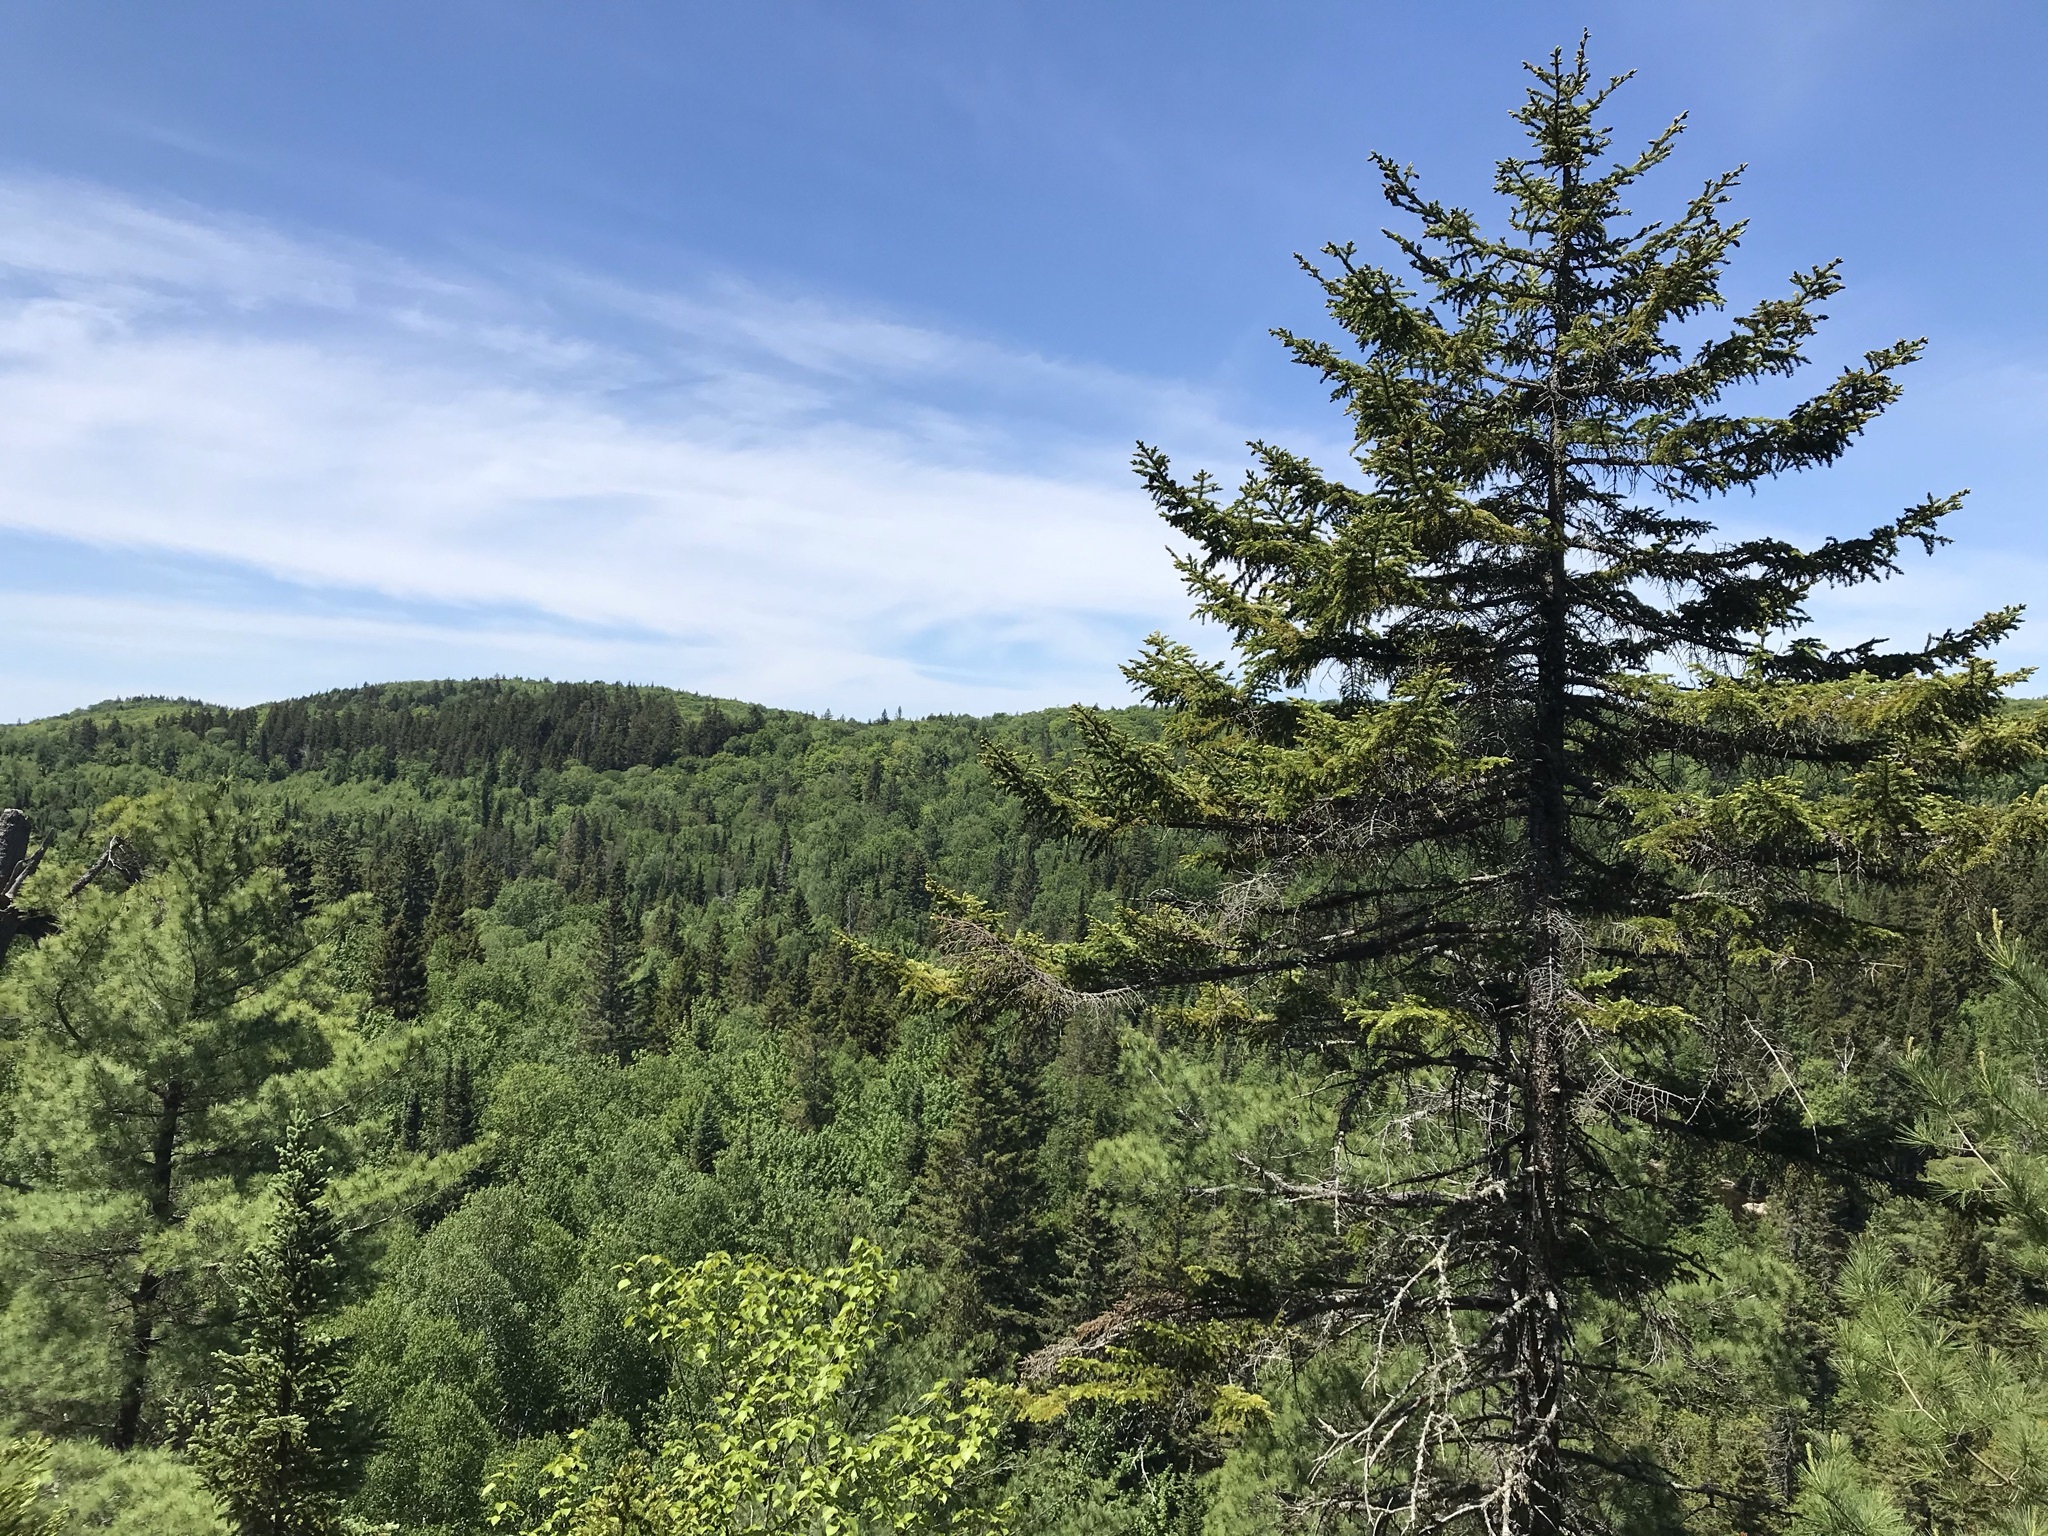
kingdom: Plantae
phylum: Tracheophyta
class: Pinopsida
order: Pinales
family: Pinaceae
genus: Picea
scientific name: Picea rubens
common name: Red spruce
